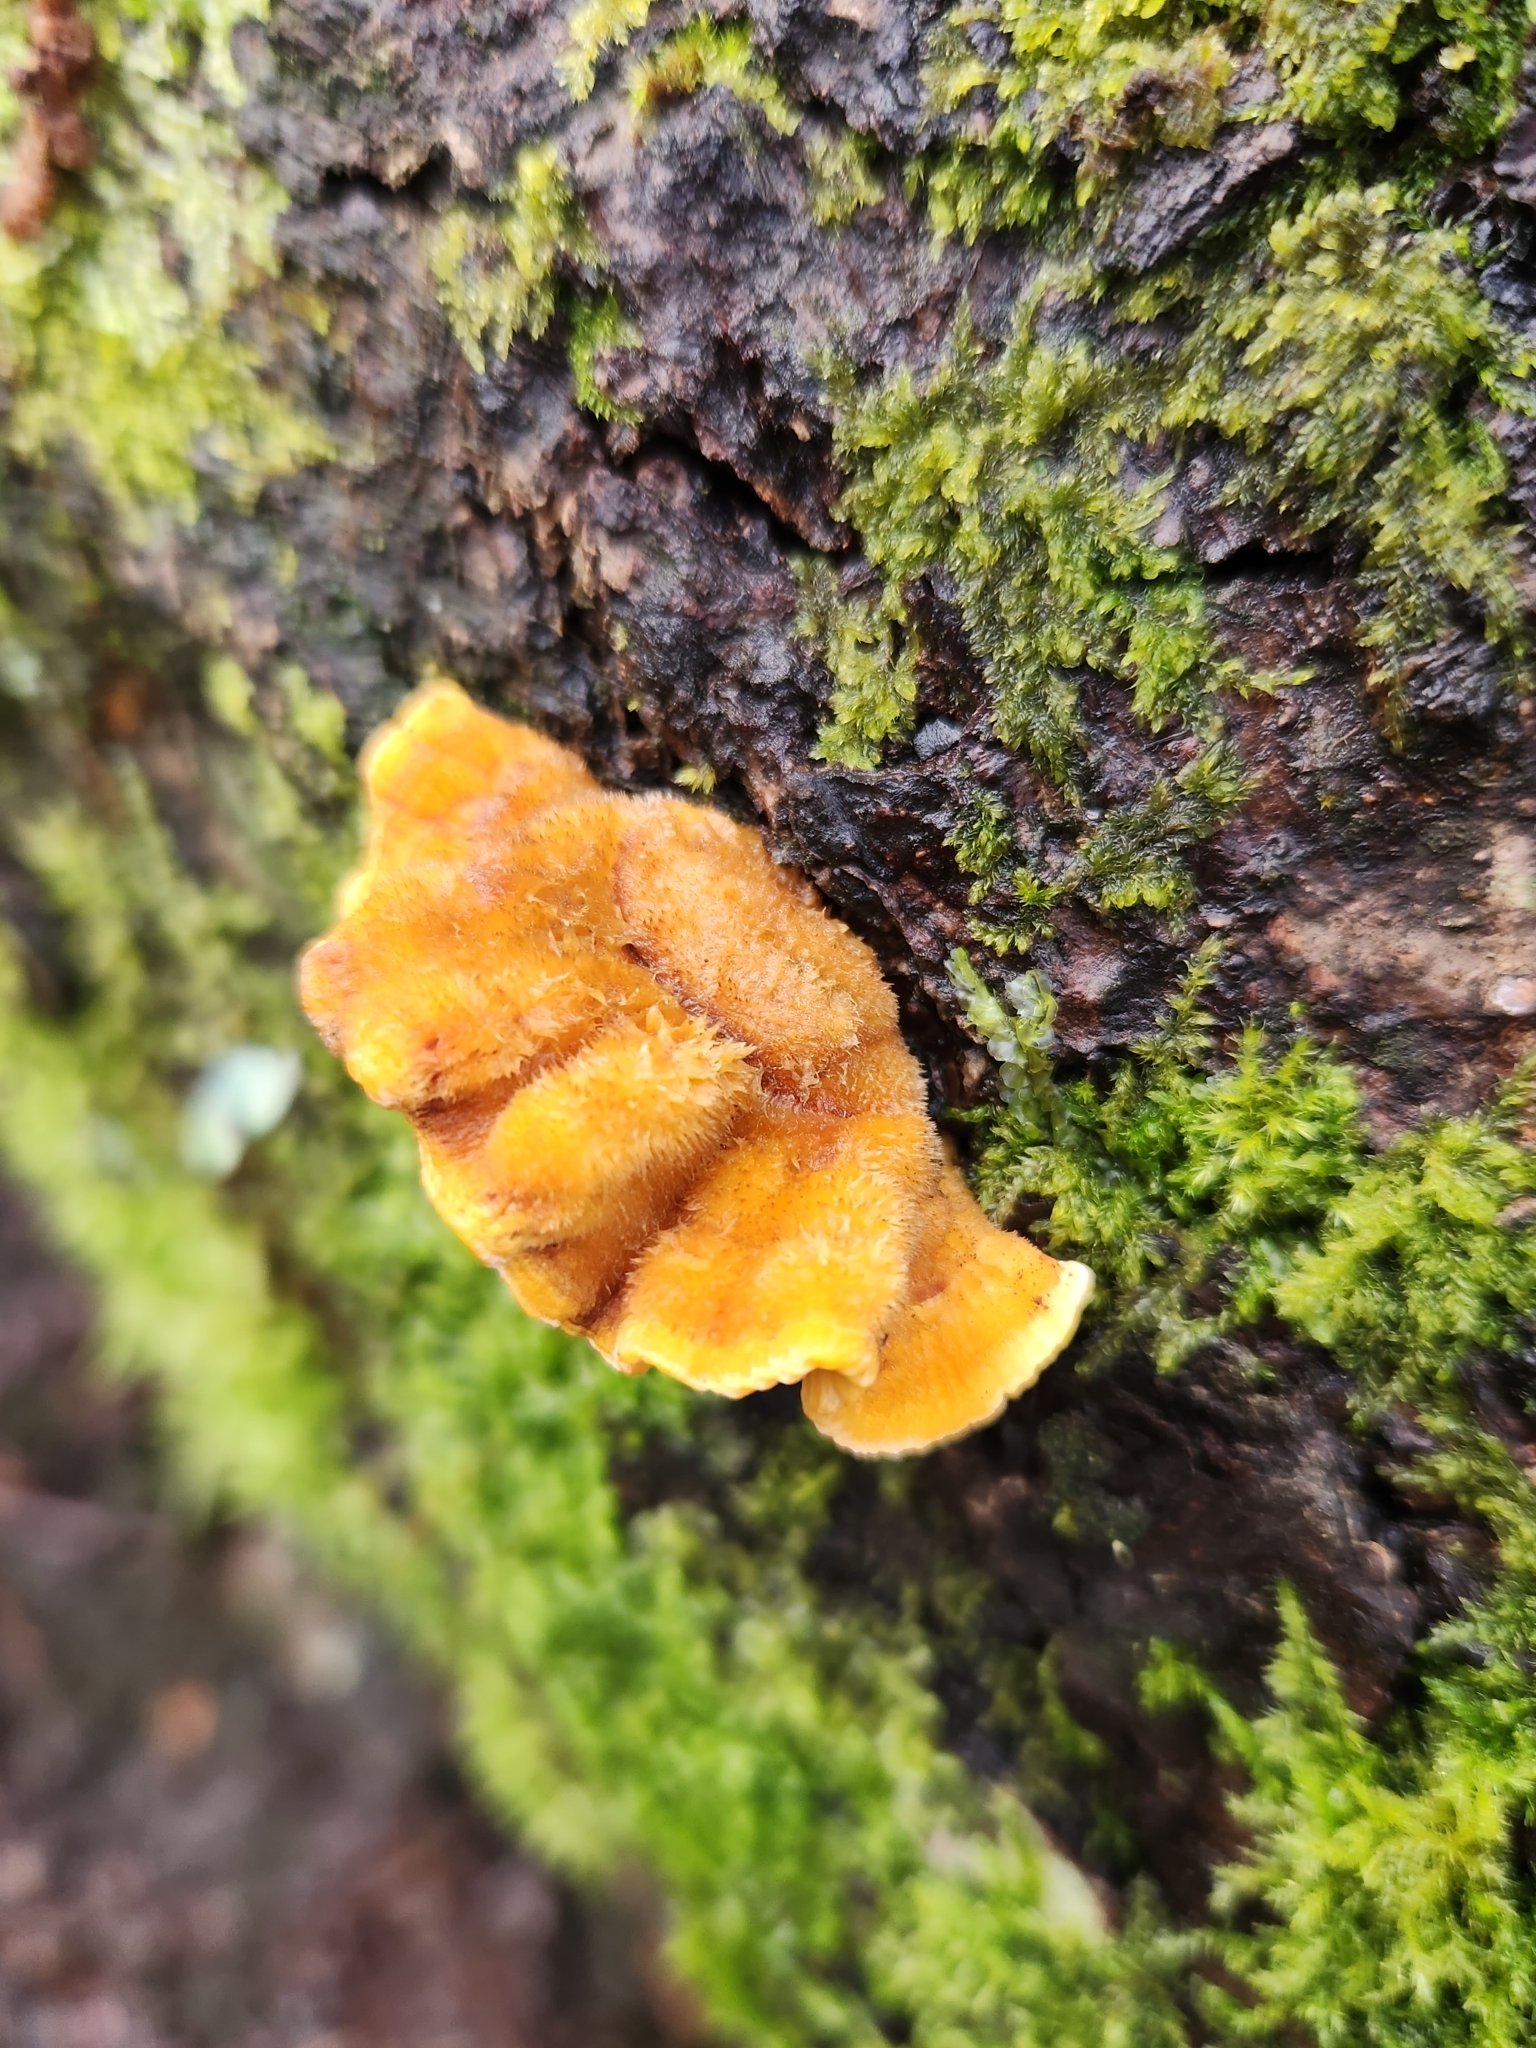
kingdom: Fungi
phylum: Basidiomycota
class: Agaricomycetes
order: Russulales
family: Stereaceae
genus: Stereum
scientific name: Stereum hirsutum
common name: Hairy curtain crust
